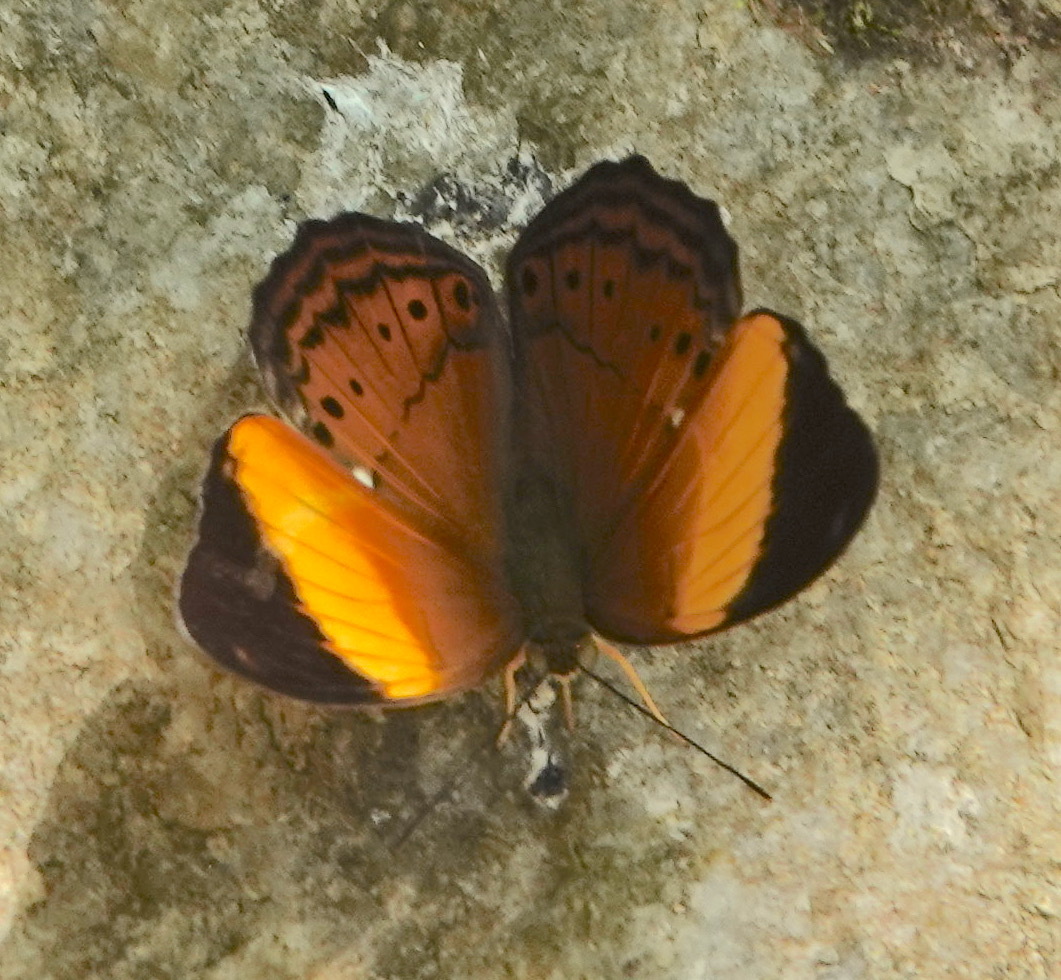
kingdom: Animalia
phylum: Arthropoda
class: Insecta
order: Lepidoptera
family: Nymphalidae
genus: Cirrochroa
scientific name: Cirrochroa orissa
